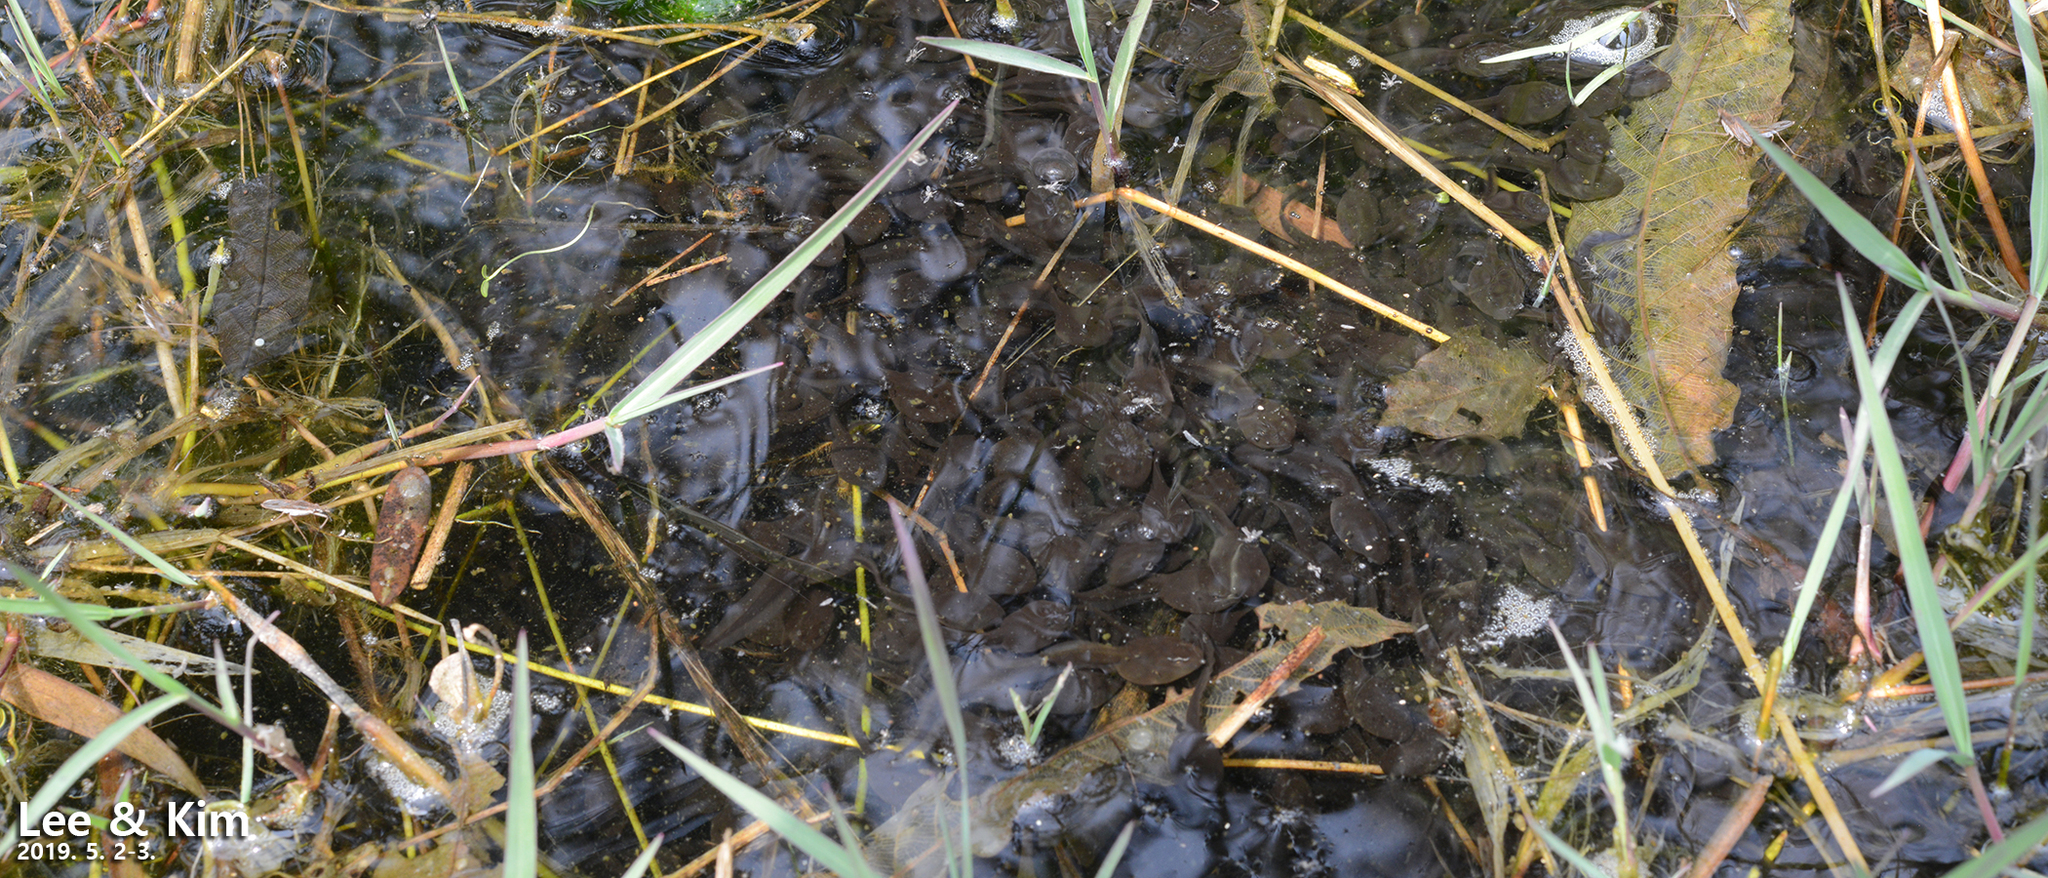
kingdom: Animalia
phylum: Chordata
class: Amphibia
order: Anura
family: Bufonidae
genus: Bufo
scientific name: Bufo gargarizans
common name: Asiatic toad
